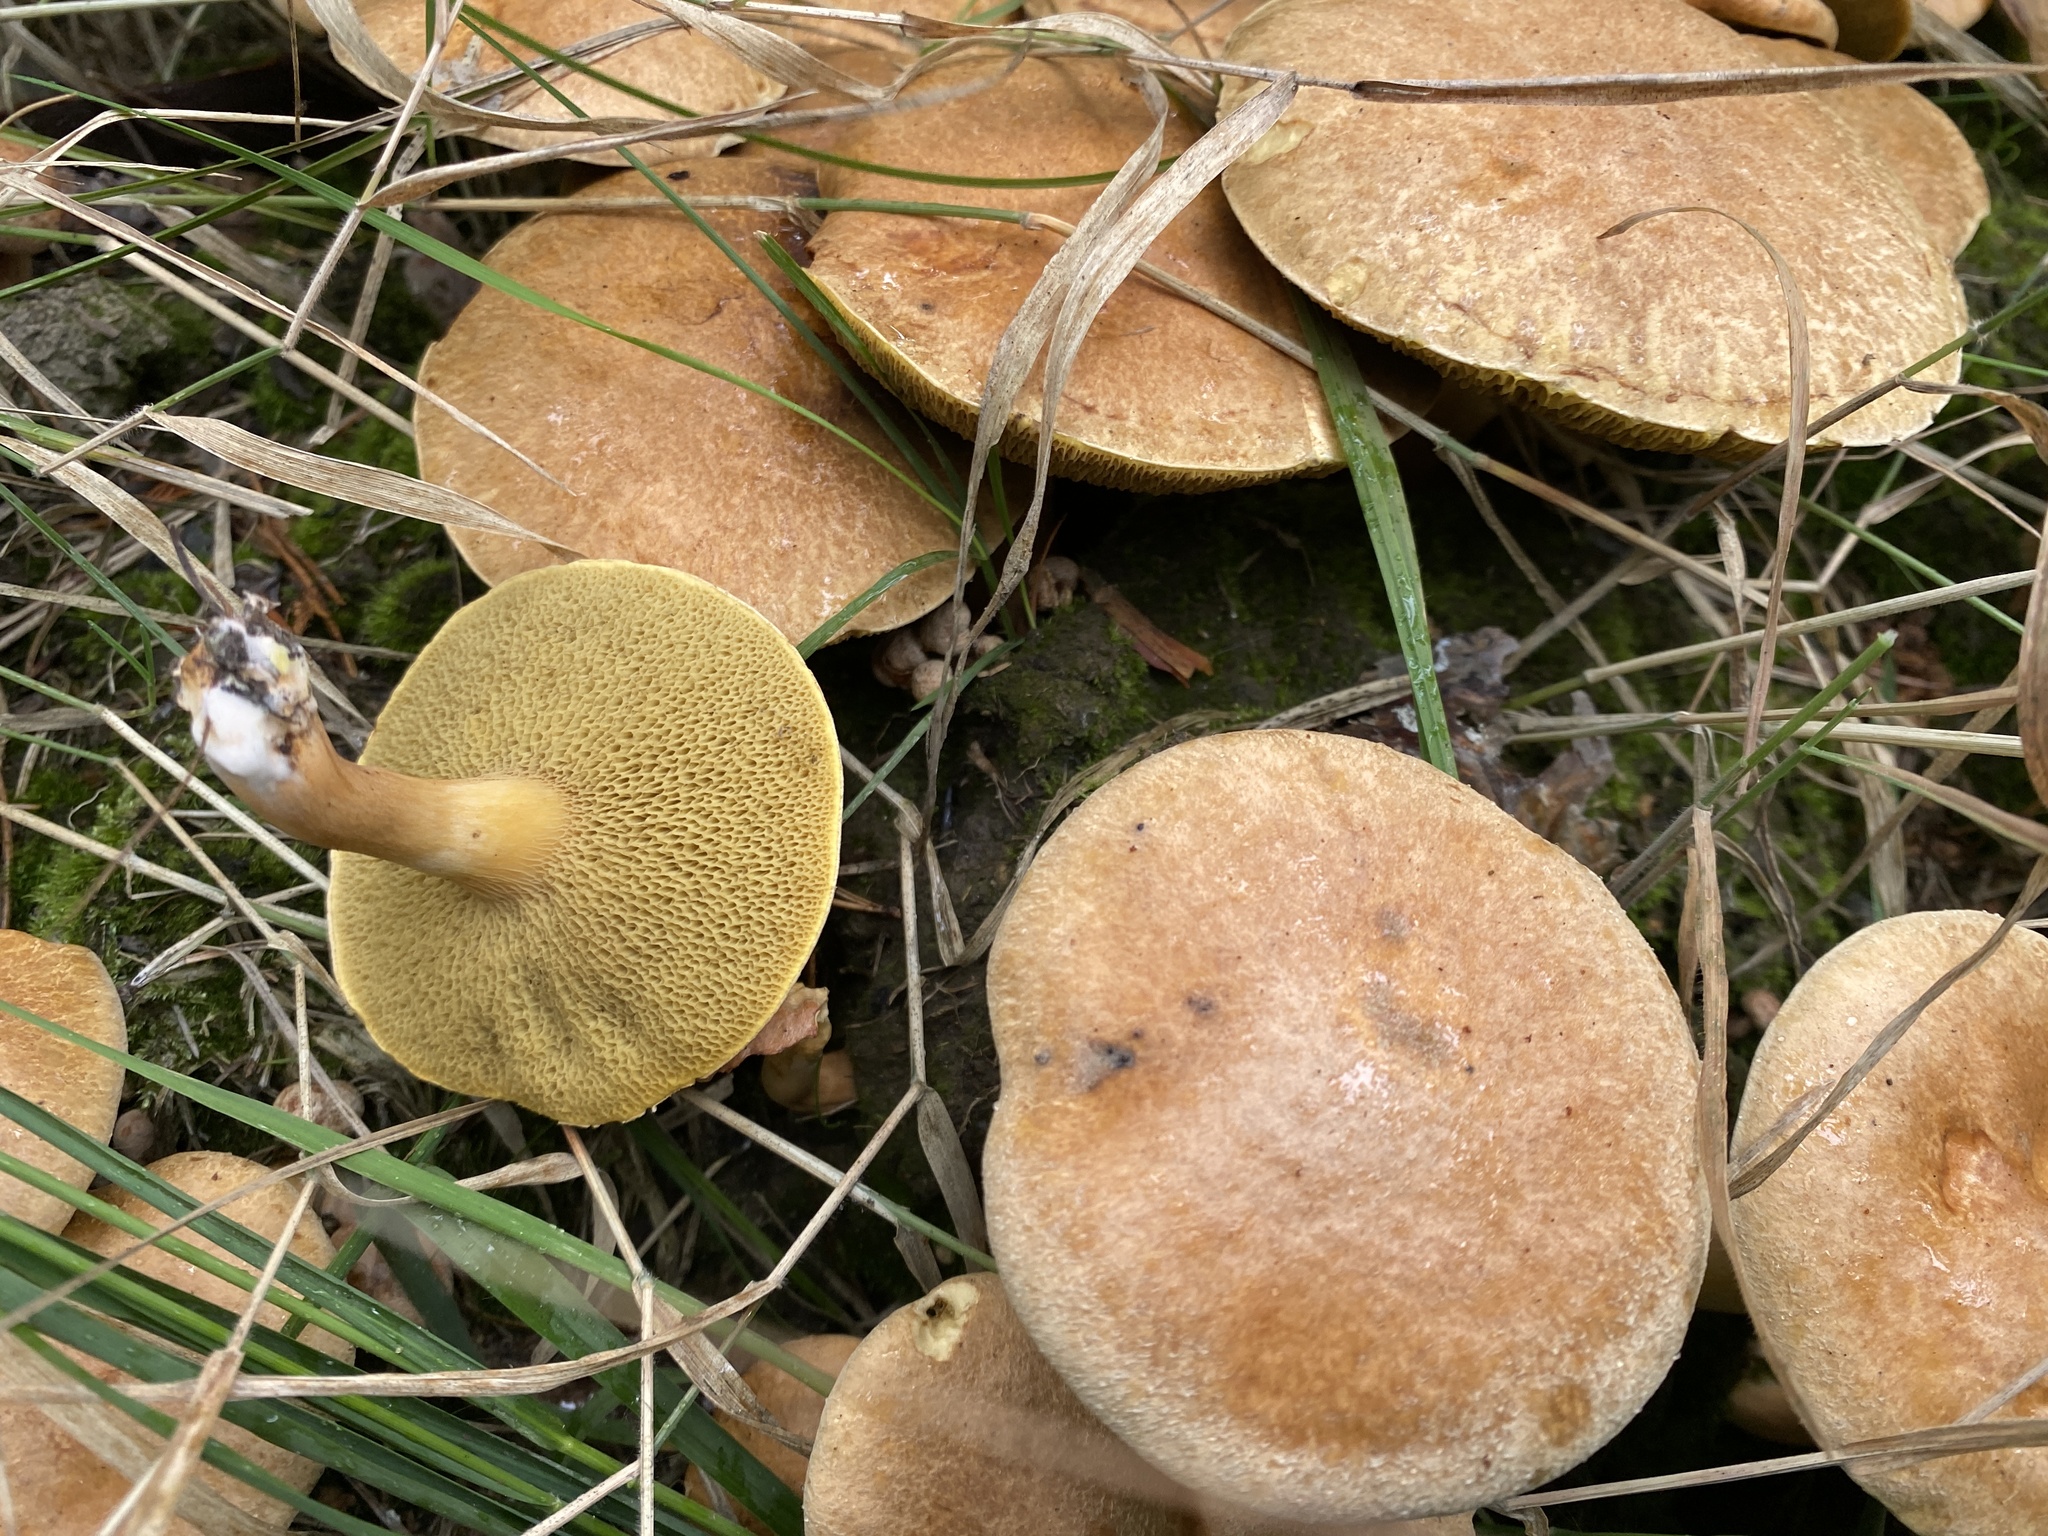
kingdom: Fungi
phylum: Basidiomycota
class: Agaricomycetes
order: Boletales
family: Suillaceae
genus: Suillus
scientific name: Suillus bovinus
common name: Bovine bolete
